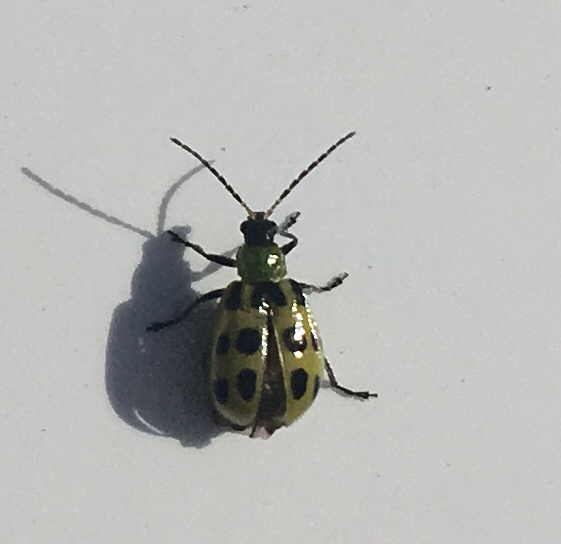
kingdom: Animalia
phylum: Arthropoda
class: Insecta
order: Coleoptera
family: Chrysomelidae
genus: Diabrotica
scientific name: Diabrotica undecimpunctata
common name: Spotted cucumber beetle
